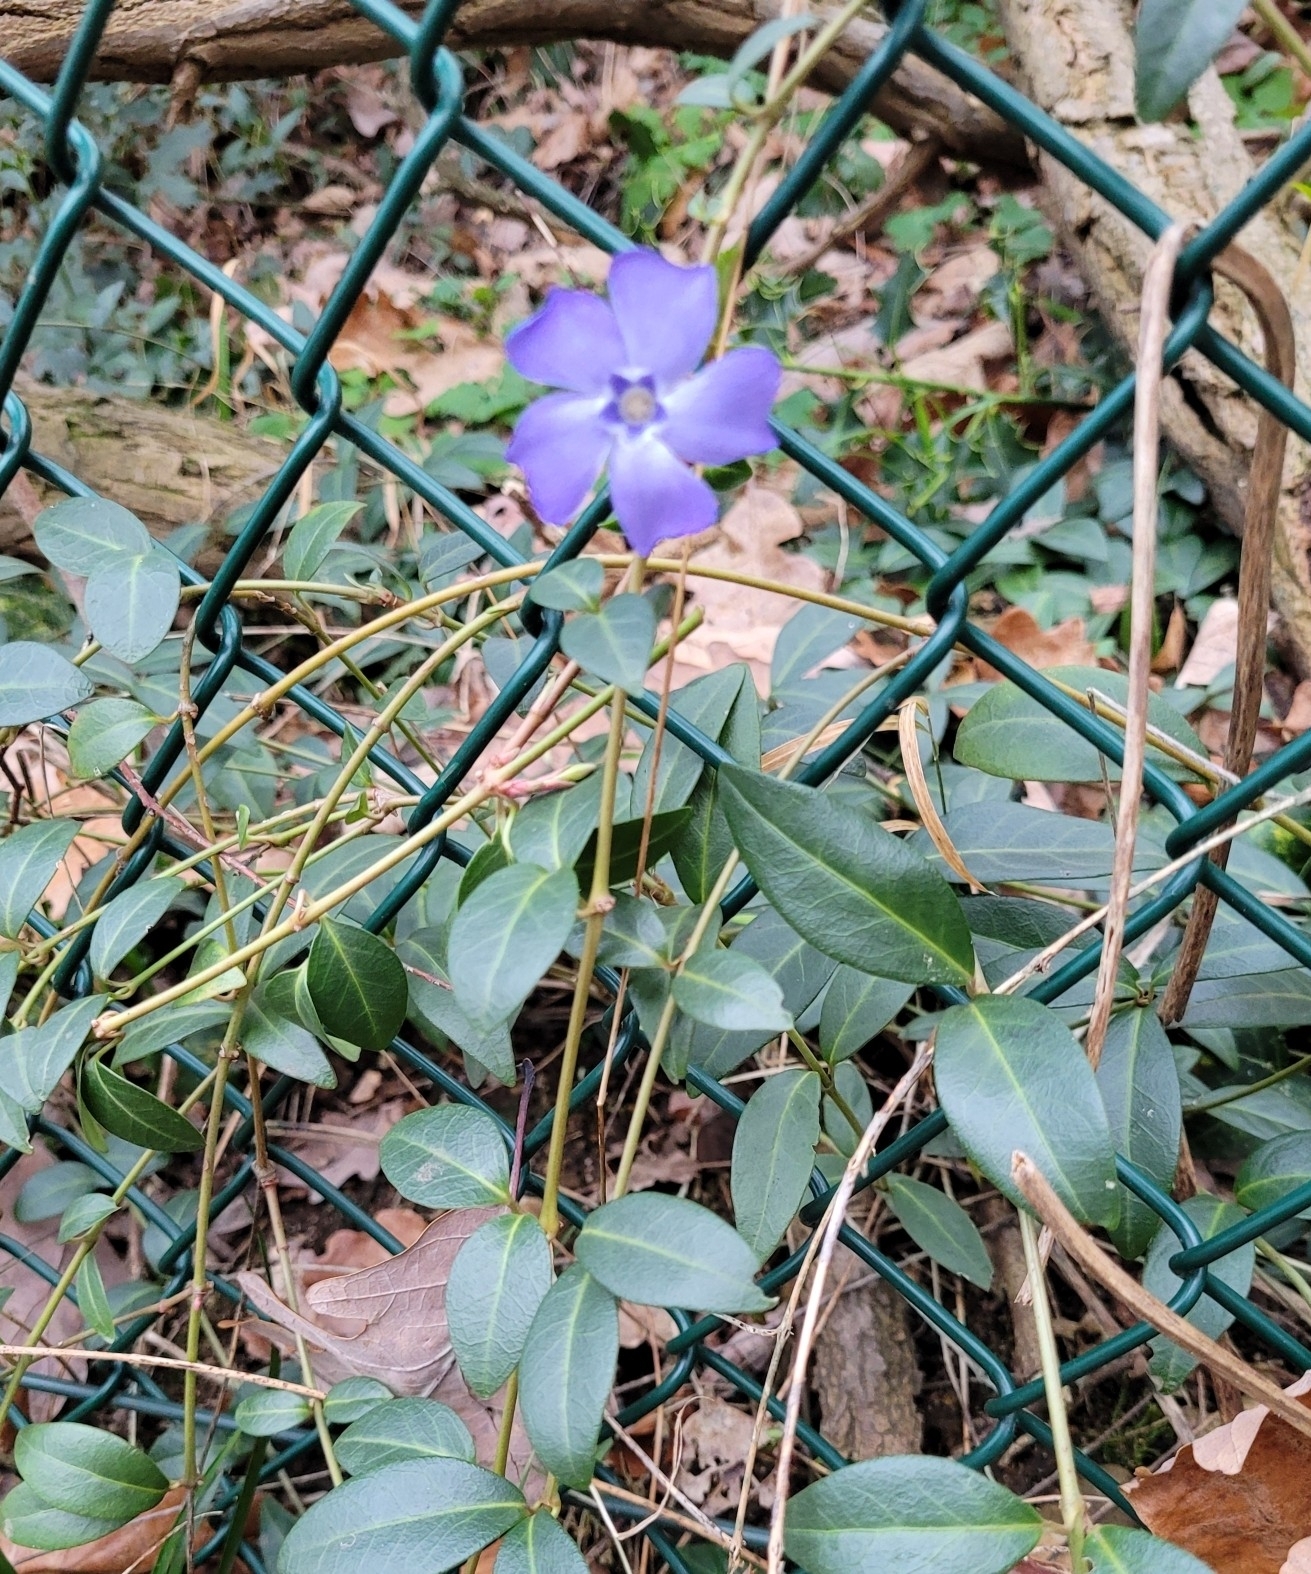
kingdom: Plantae
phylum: Tracheophyta
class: Magnoliopsida
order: Gentianales
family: Apocynaceae
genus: Vinca
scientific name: Vinca minor
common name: Lesser periwinkle
